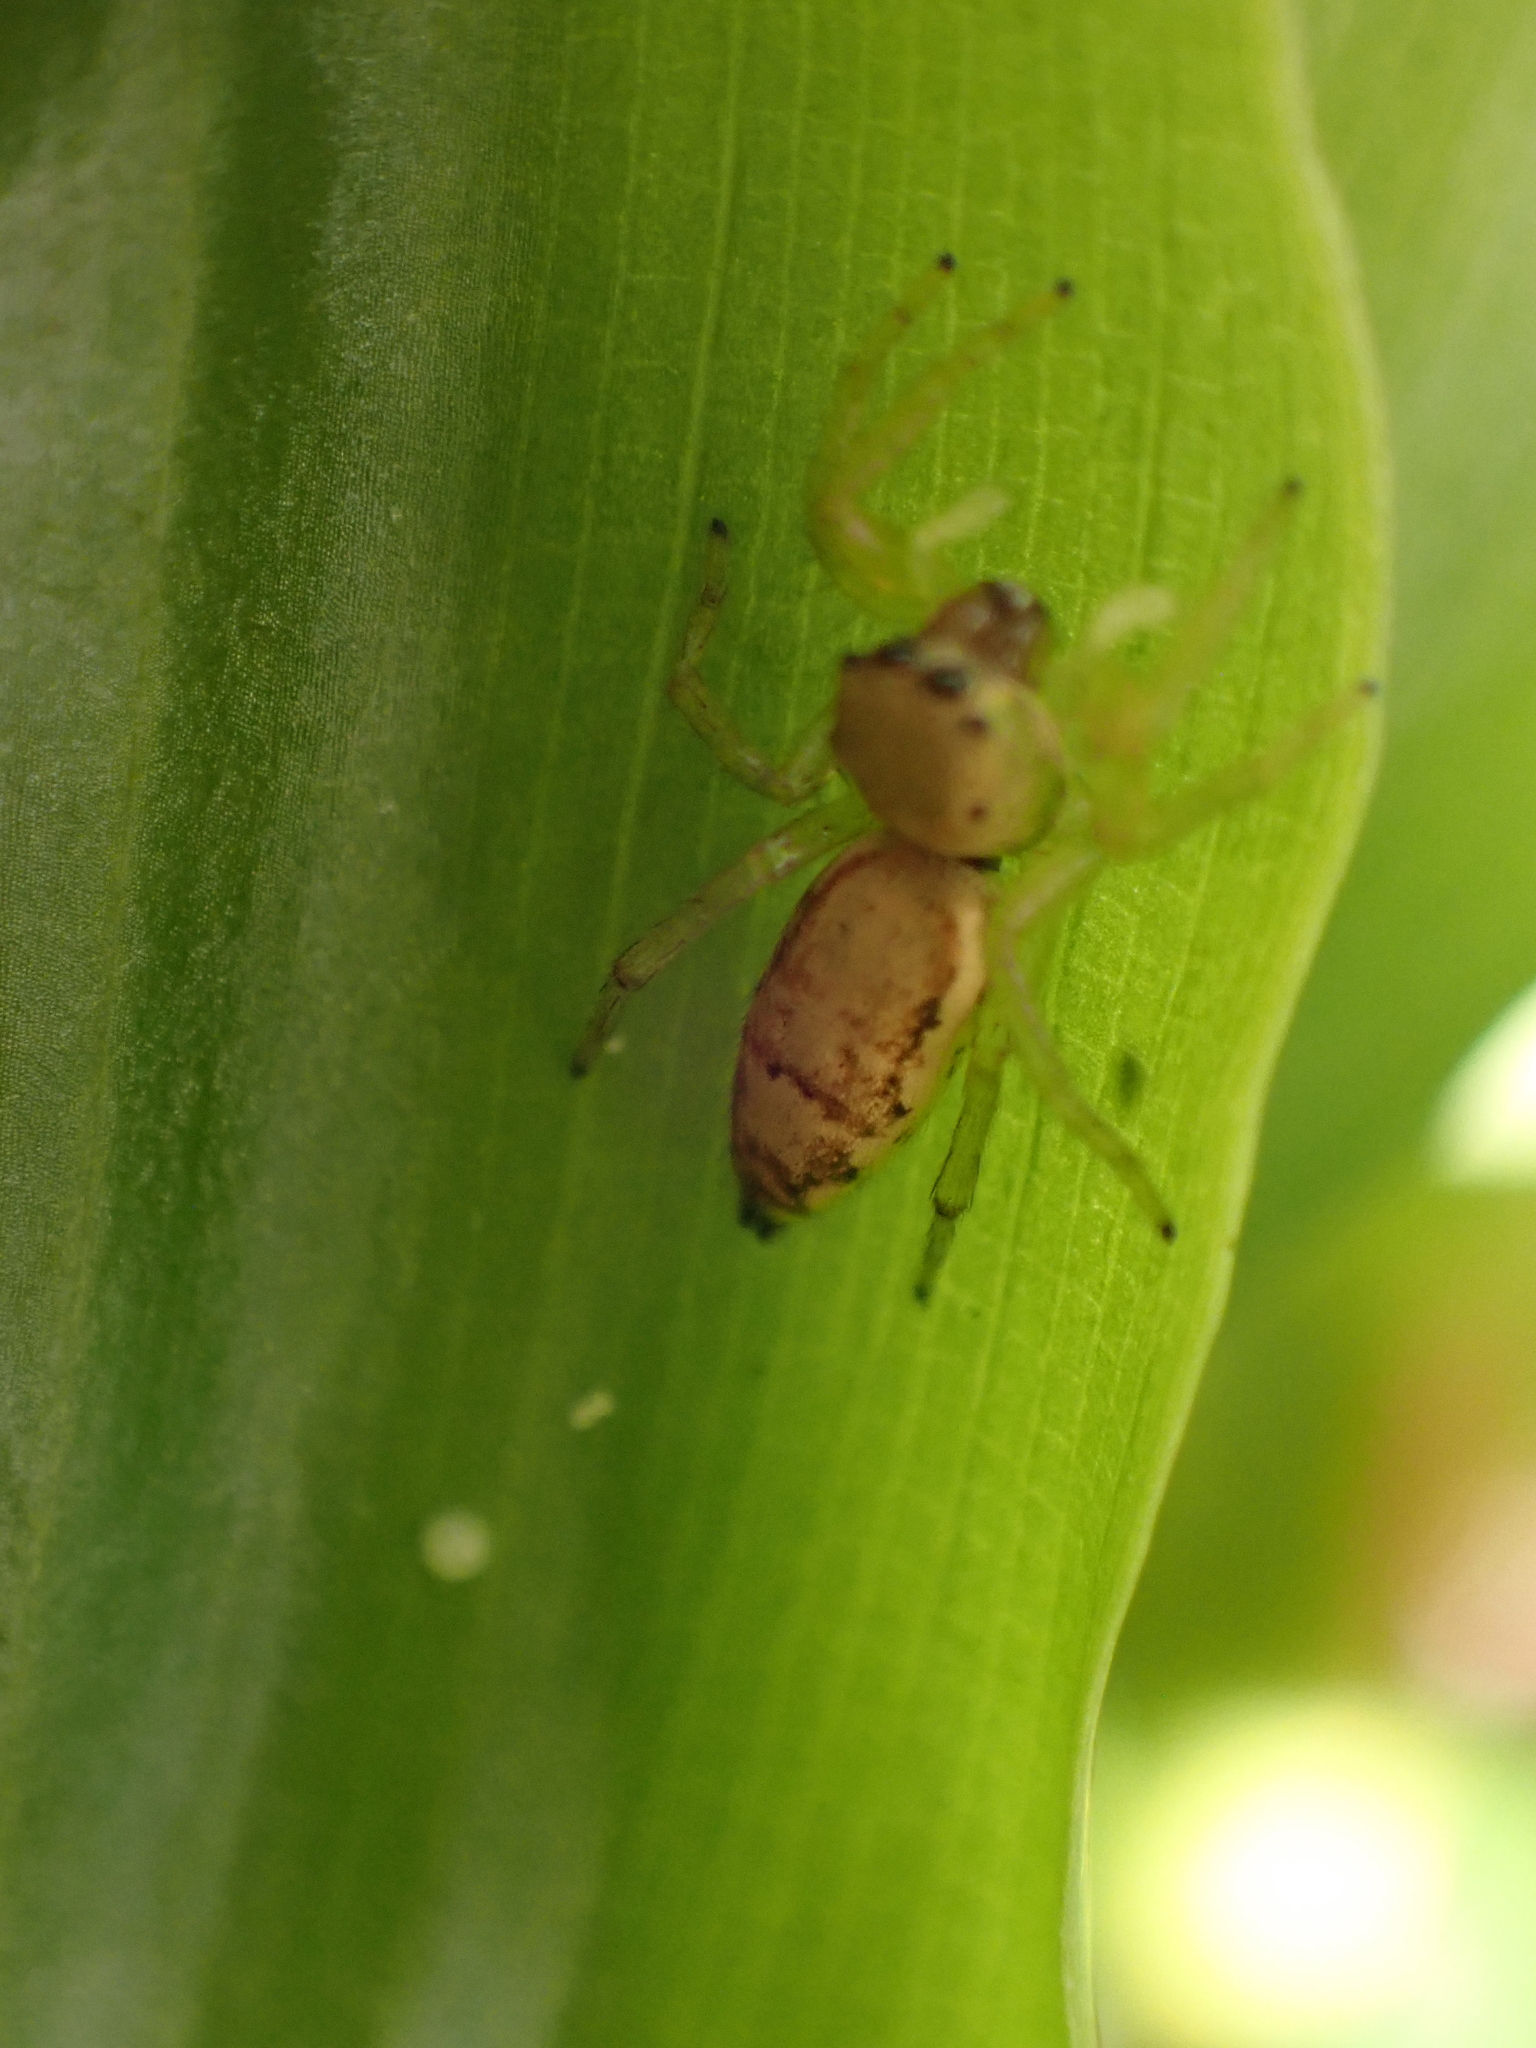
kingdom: Animalia
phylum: Arthropoda
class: Arachnida
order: Araneae
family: Salticidae
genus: Cosmophasis
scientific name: Cosmophasis lami
